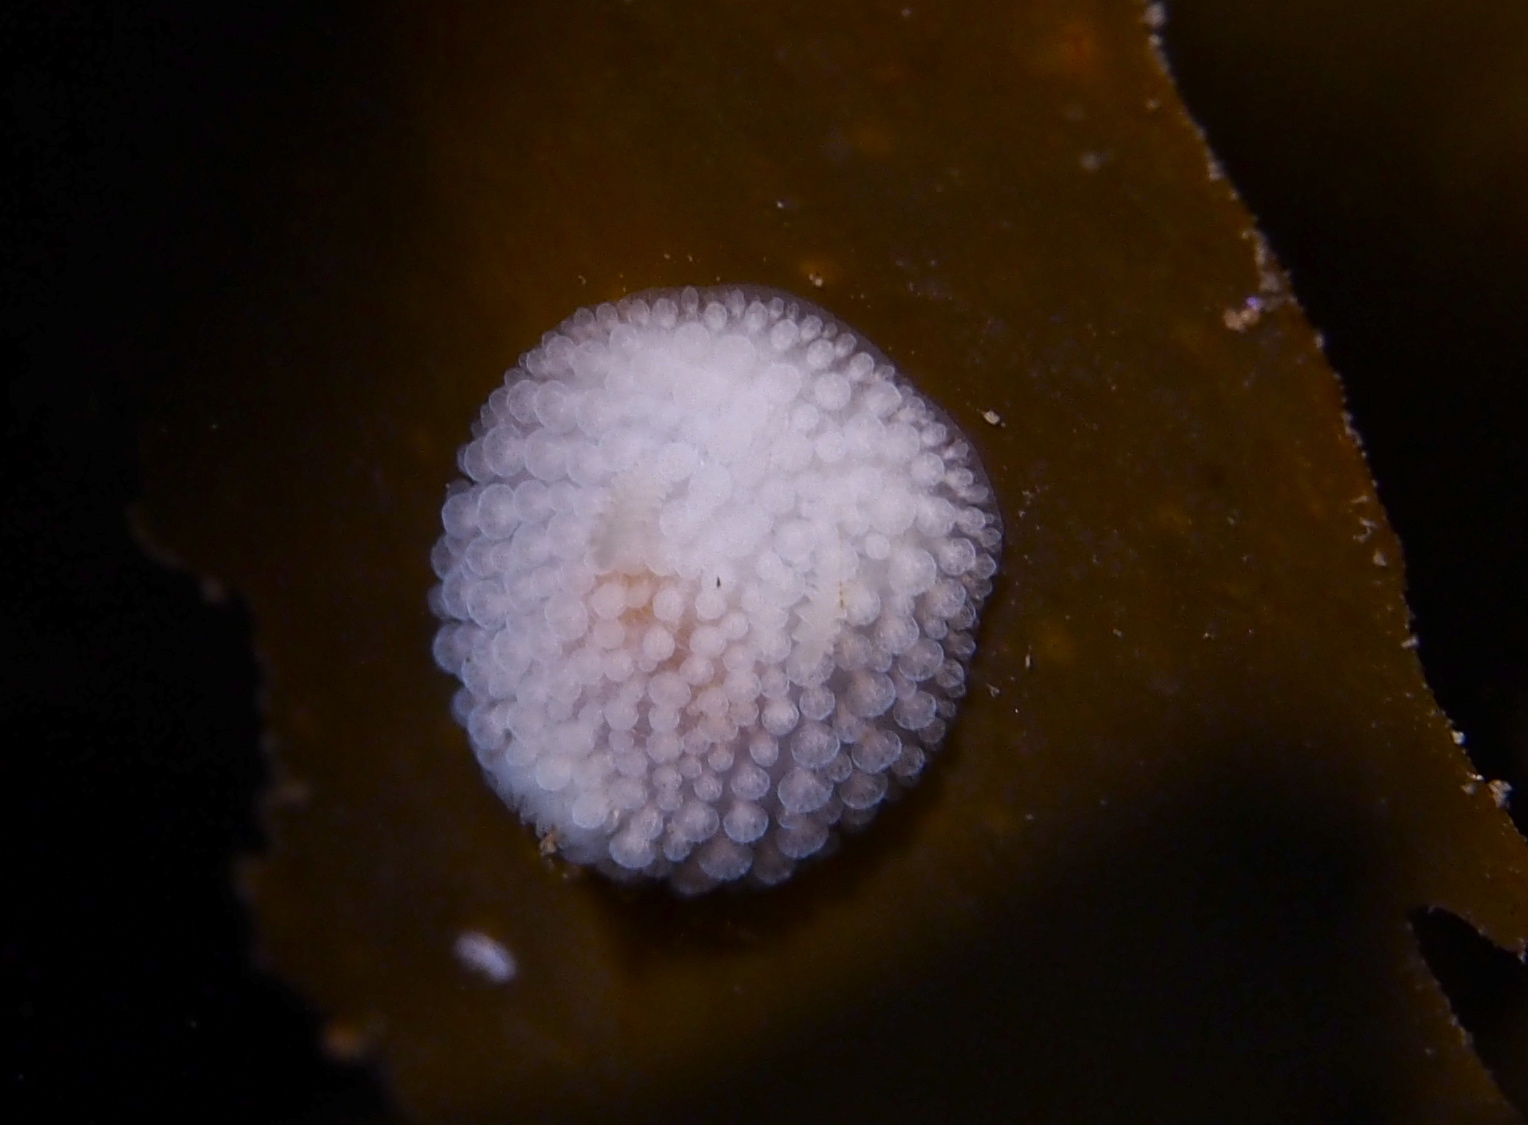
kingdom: Animalia
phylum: Mollusca
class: Gastropoda
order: Nudibranchia
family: Onchidorididae
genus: Onchidoris
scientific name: Onchidoris muricata
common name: Rough doris
